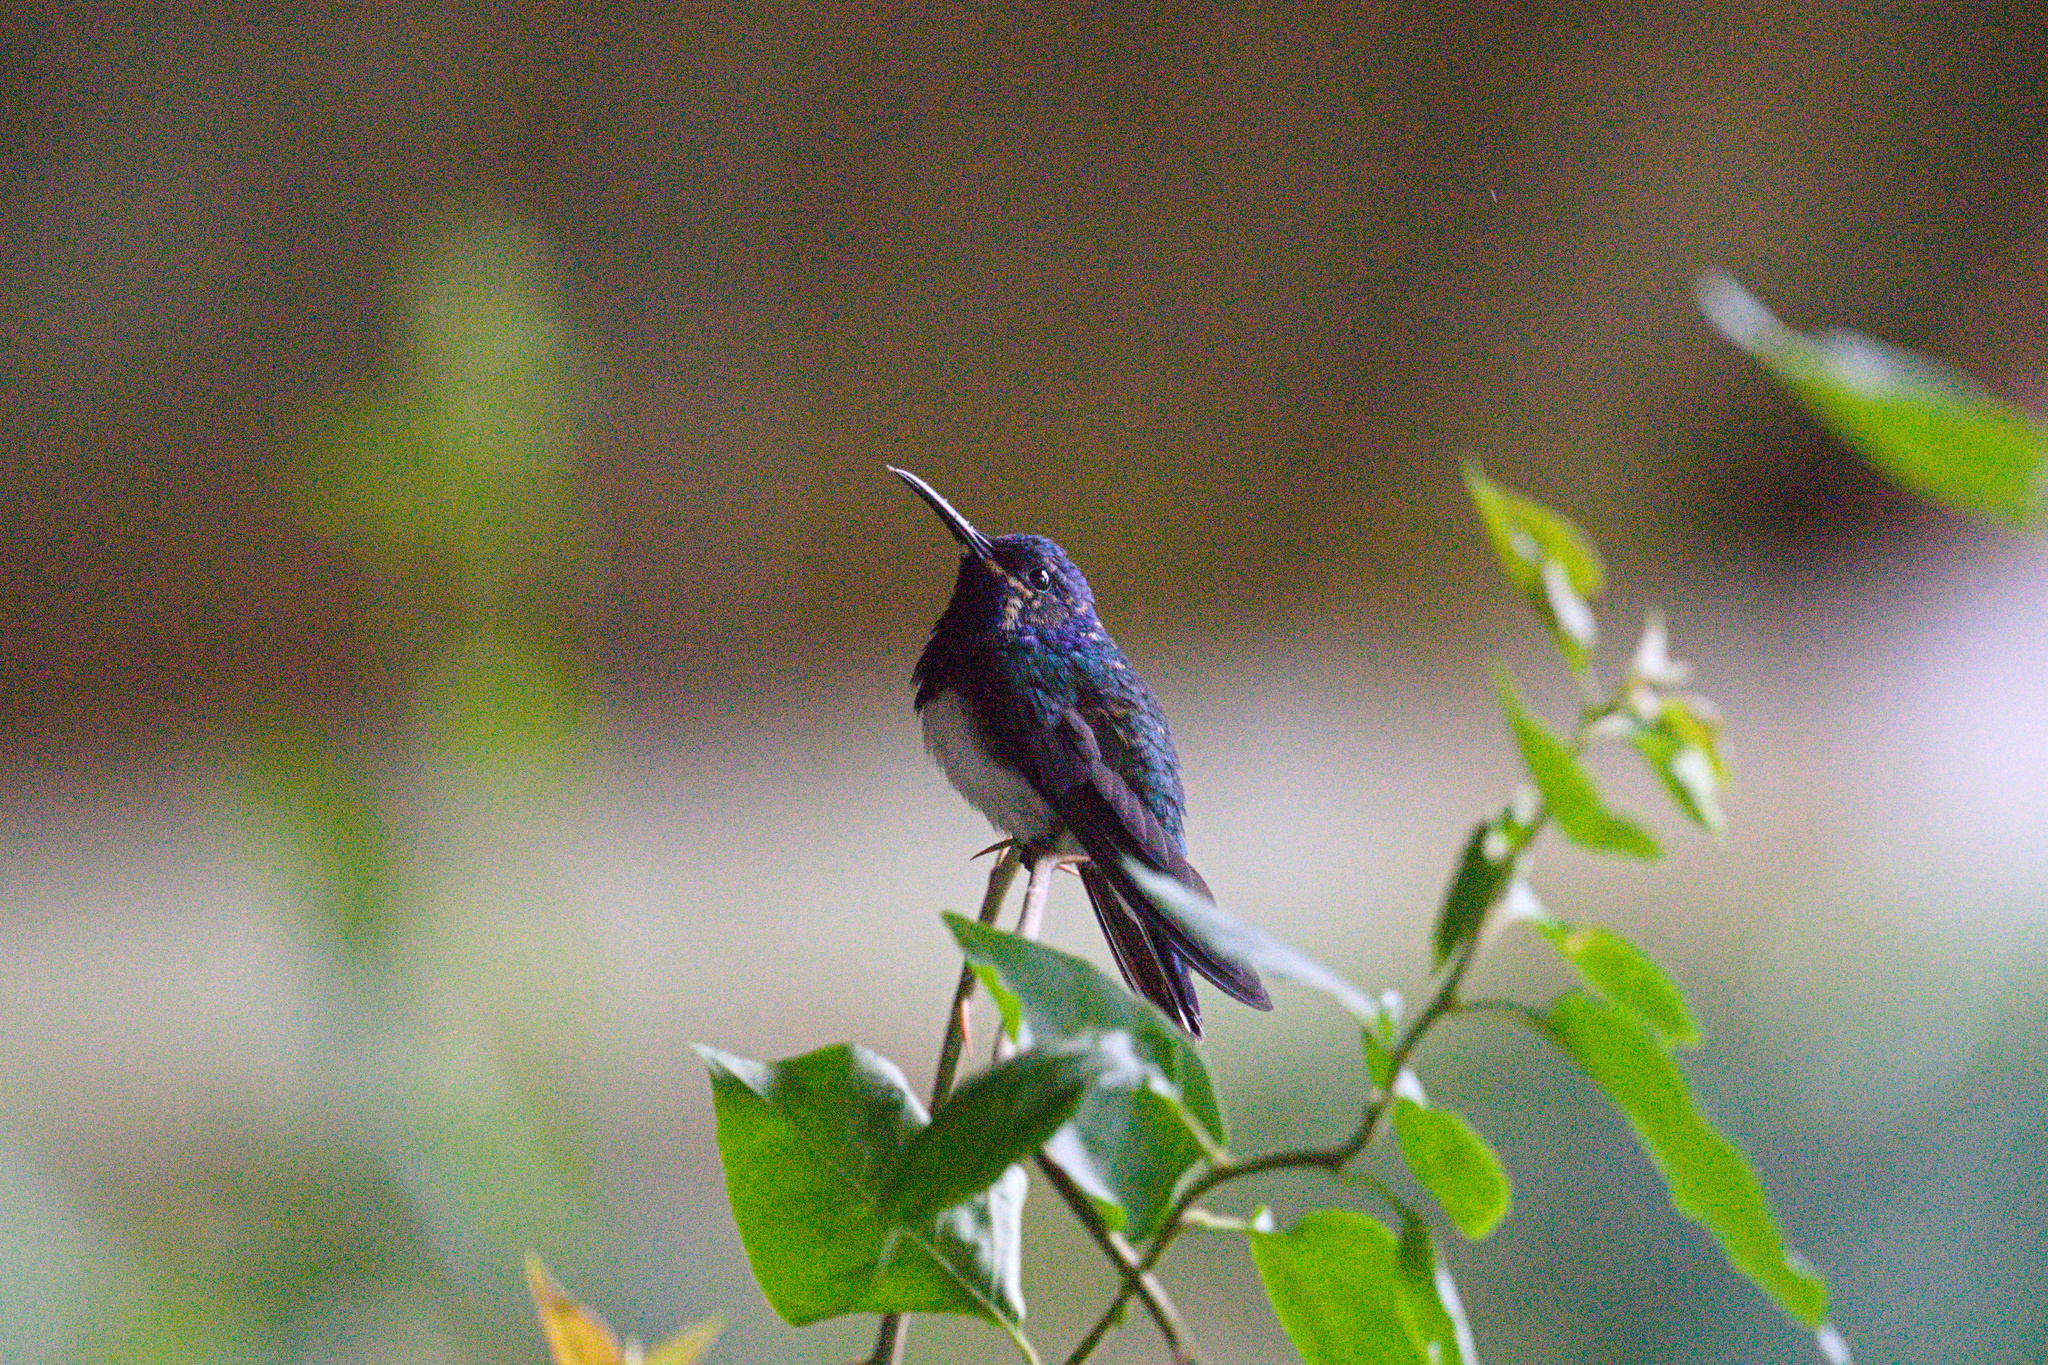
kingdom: Animalia
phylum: Chordata
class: Aves
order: Apodiformes
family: Trochilidae
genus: Florisuga
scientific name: Florisuga mellivora
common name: White-necked jacobin
